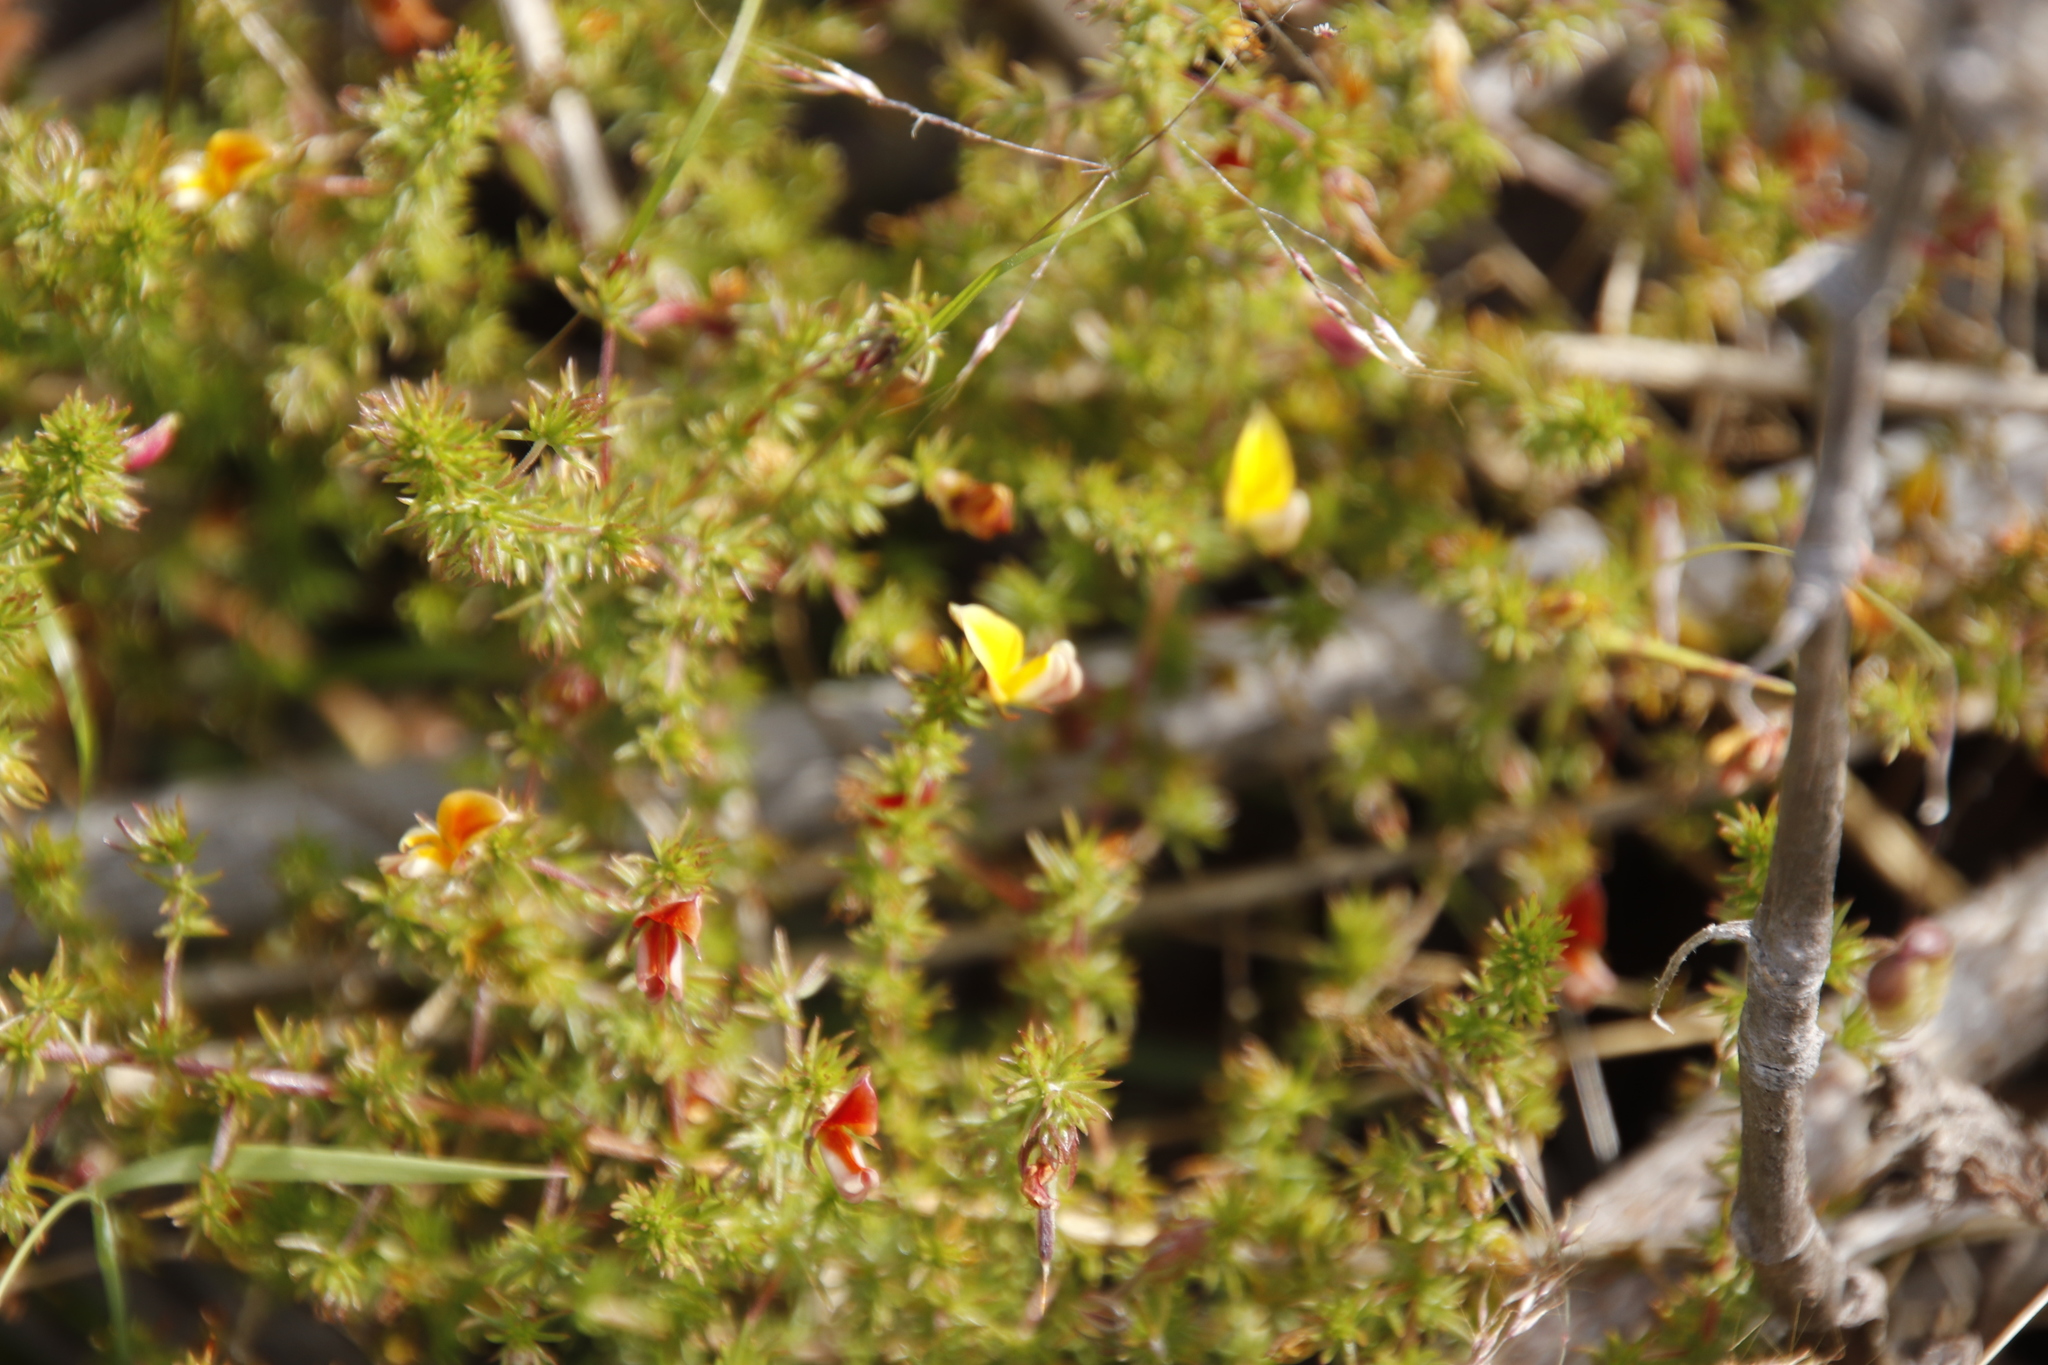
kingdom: Plantae
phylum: Tracheophyta
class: Magnoliopsida
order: Fabales
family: Fabaceae
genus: Aspalathus
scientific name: Aspalathus retroflexa
